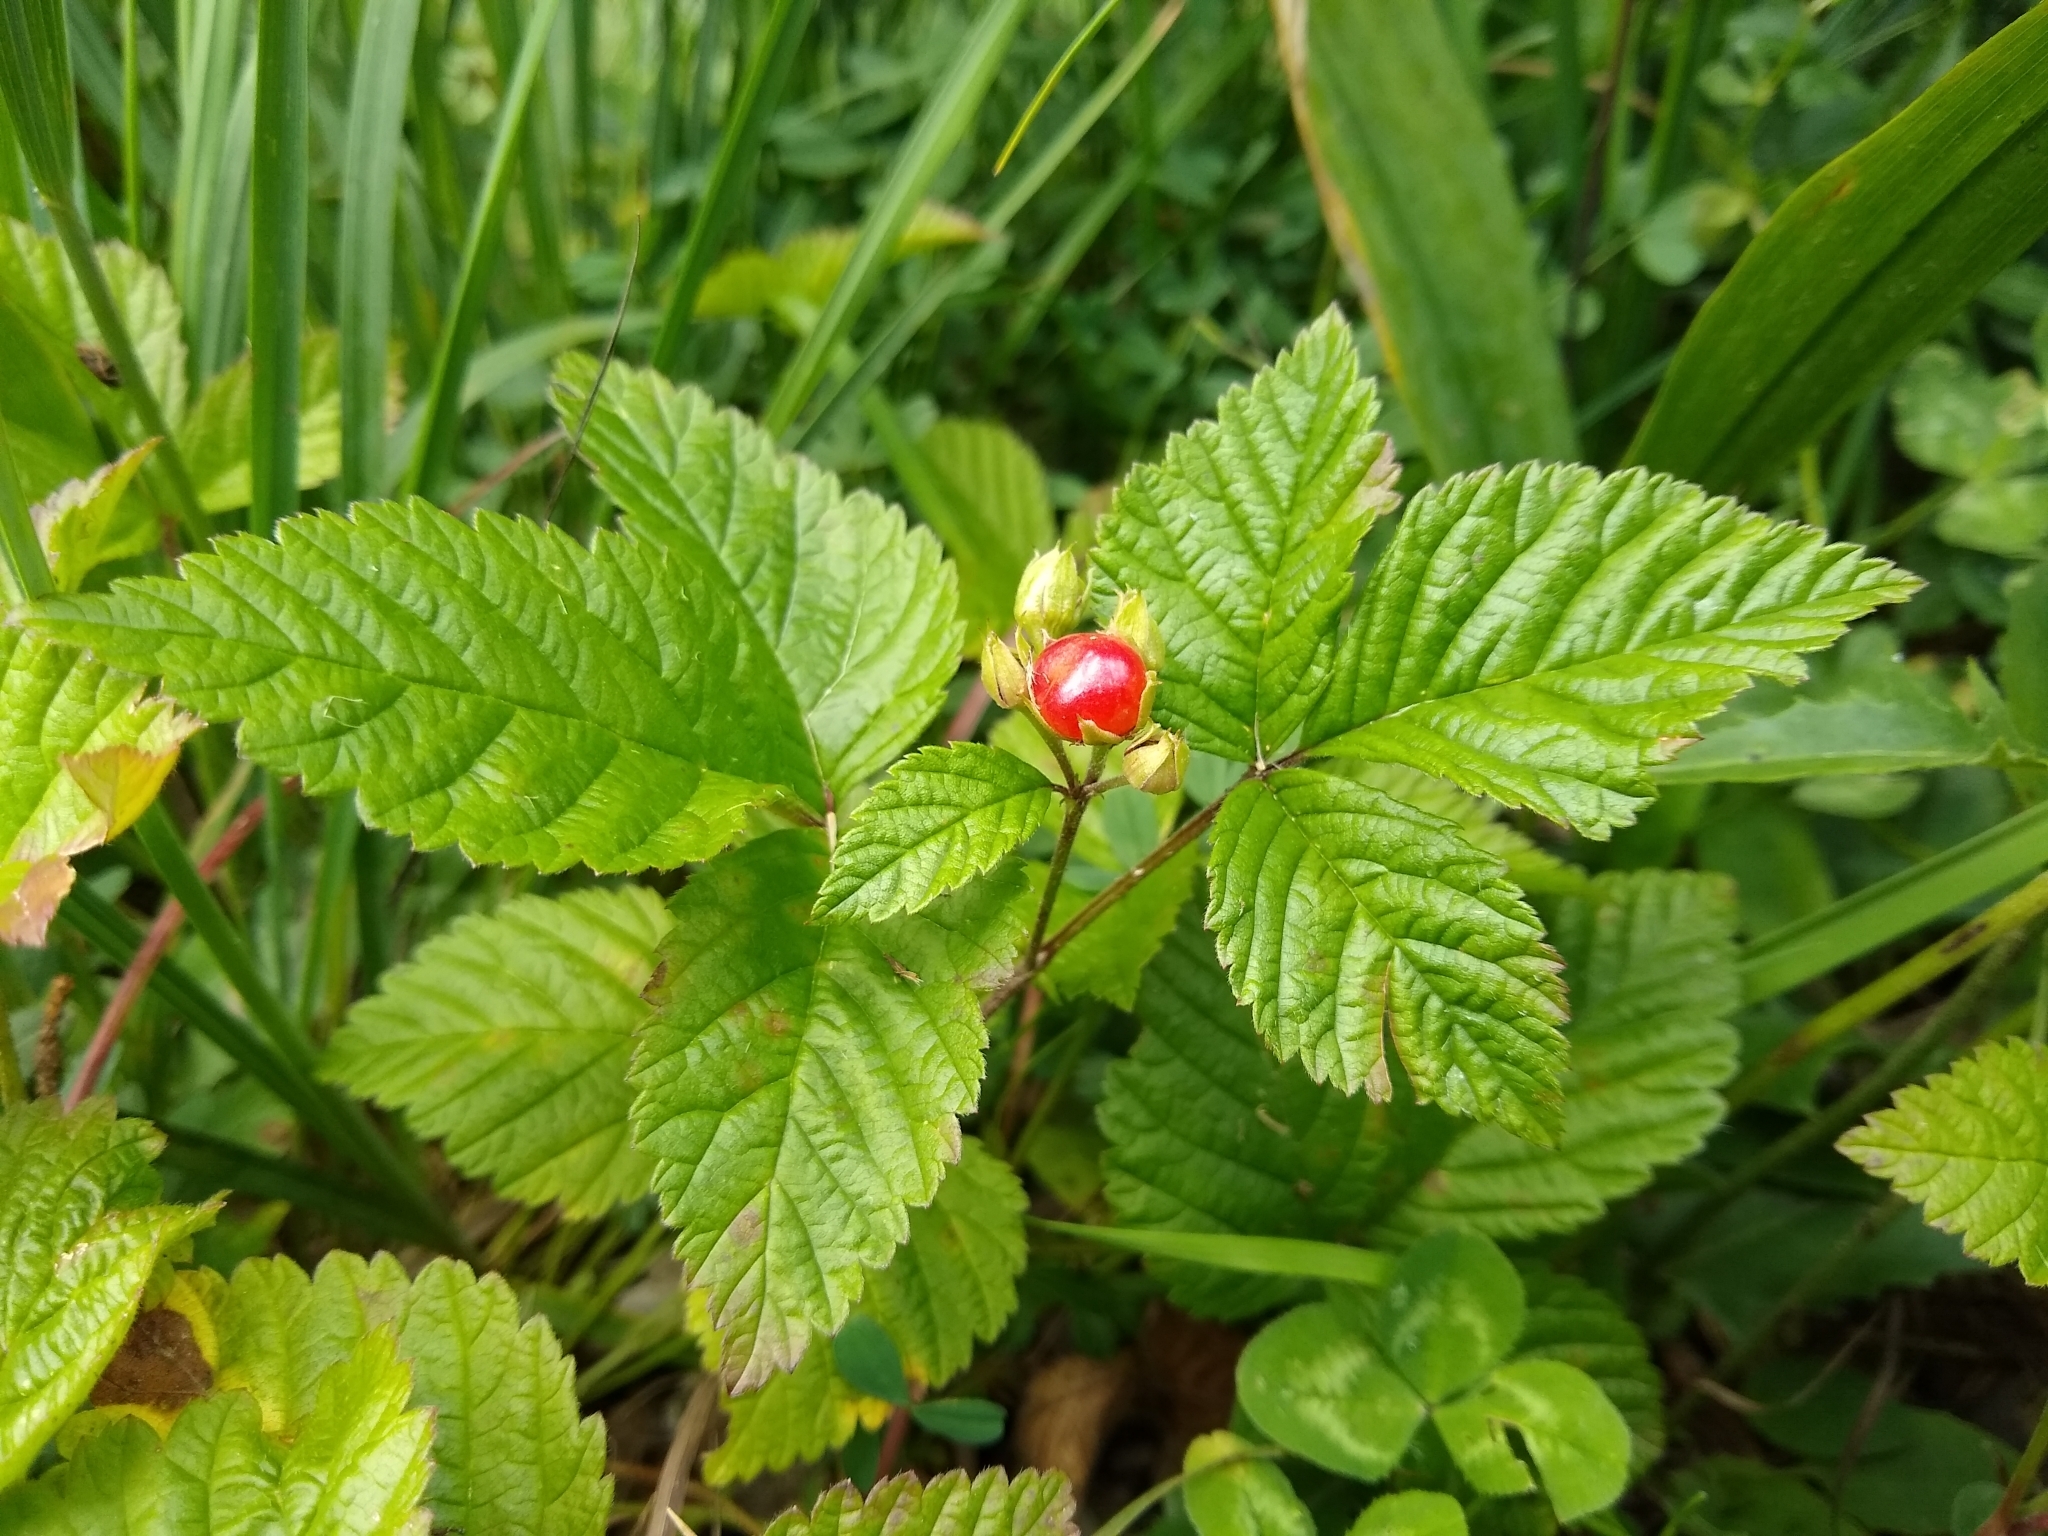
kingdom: Plantae
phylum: Tracheophyta
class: Magnoliopsida
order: Rosales
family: Rosaceae
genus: Rubus
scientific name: Rubus saxatilis
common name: Stone bramble
